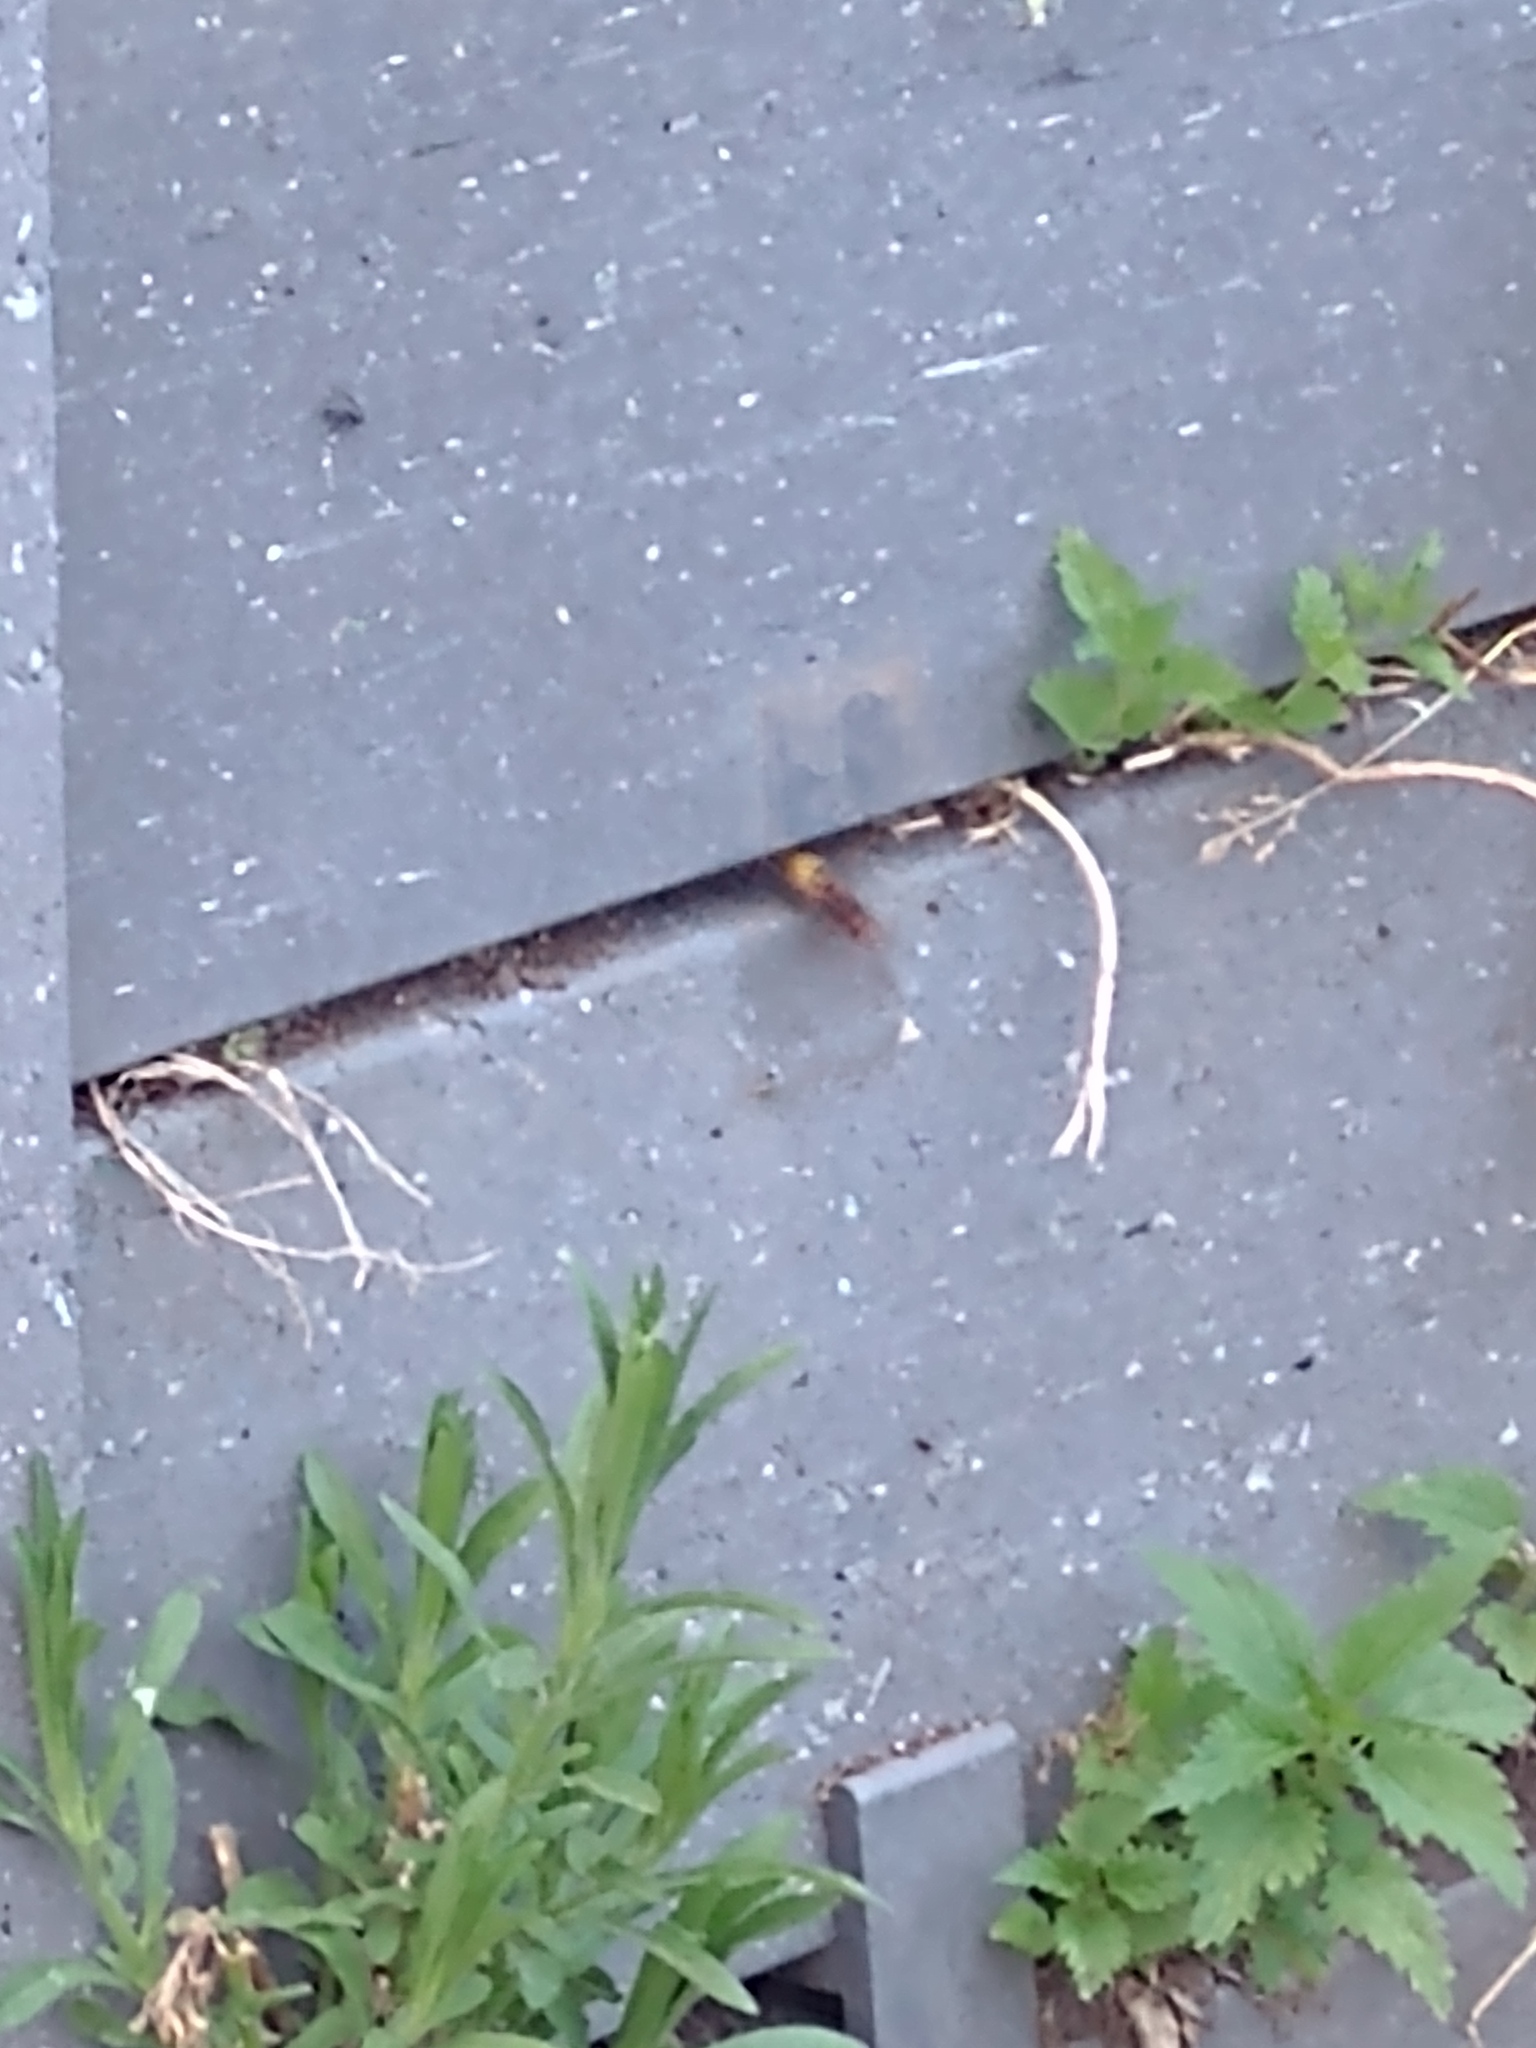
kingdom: Animalia
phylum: Arthropoda
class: Insecta
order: Hymenoptera
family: Vespidae
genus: Vespa
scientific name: Vespa crabro
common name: Hornet
